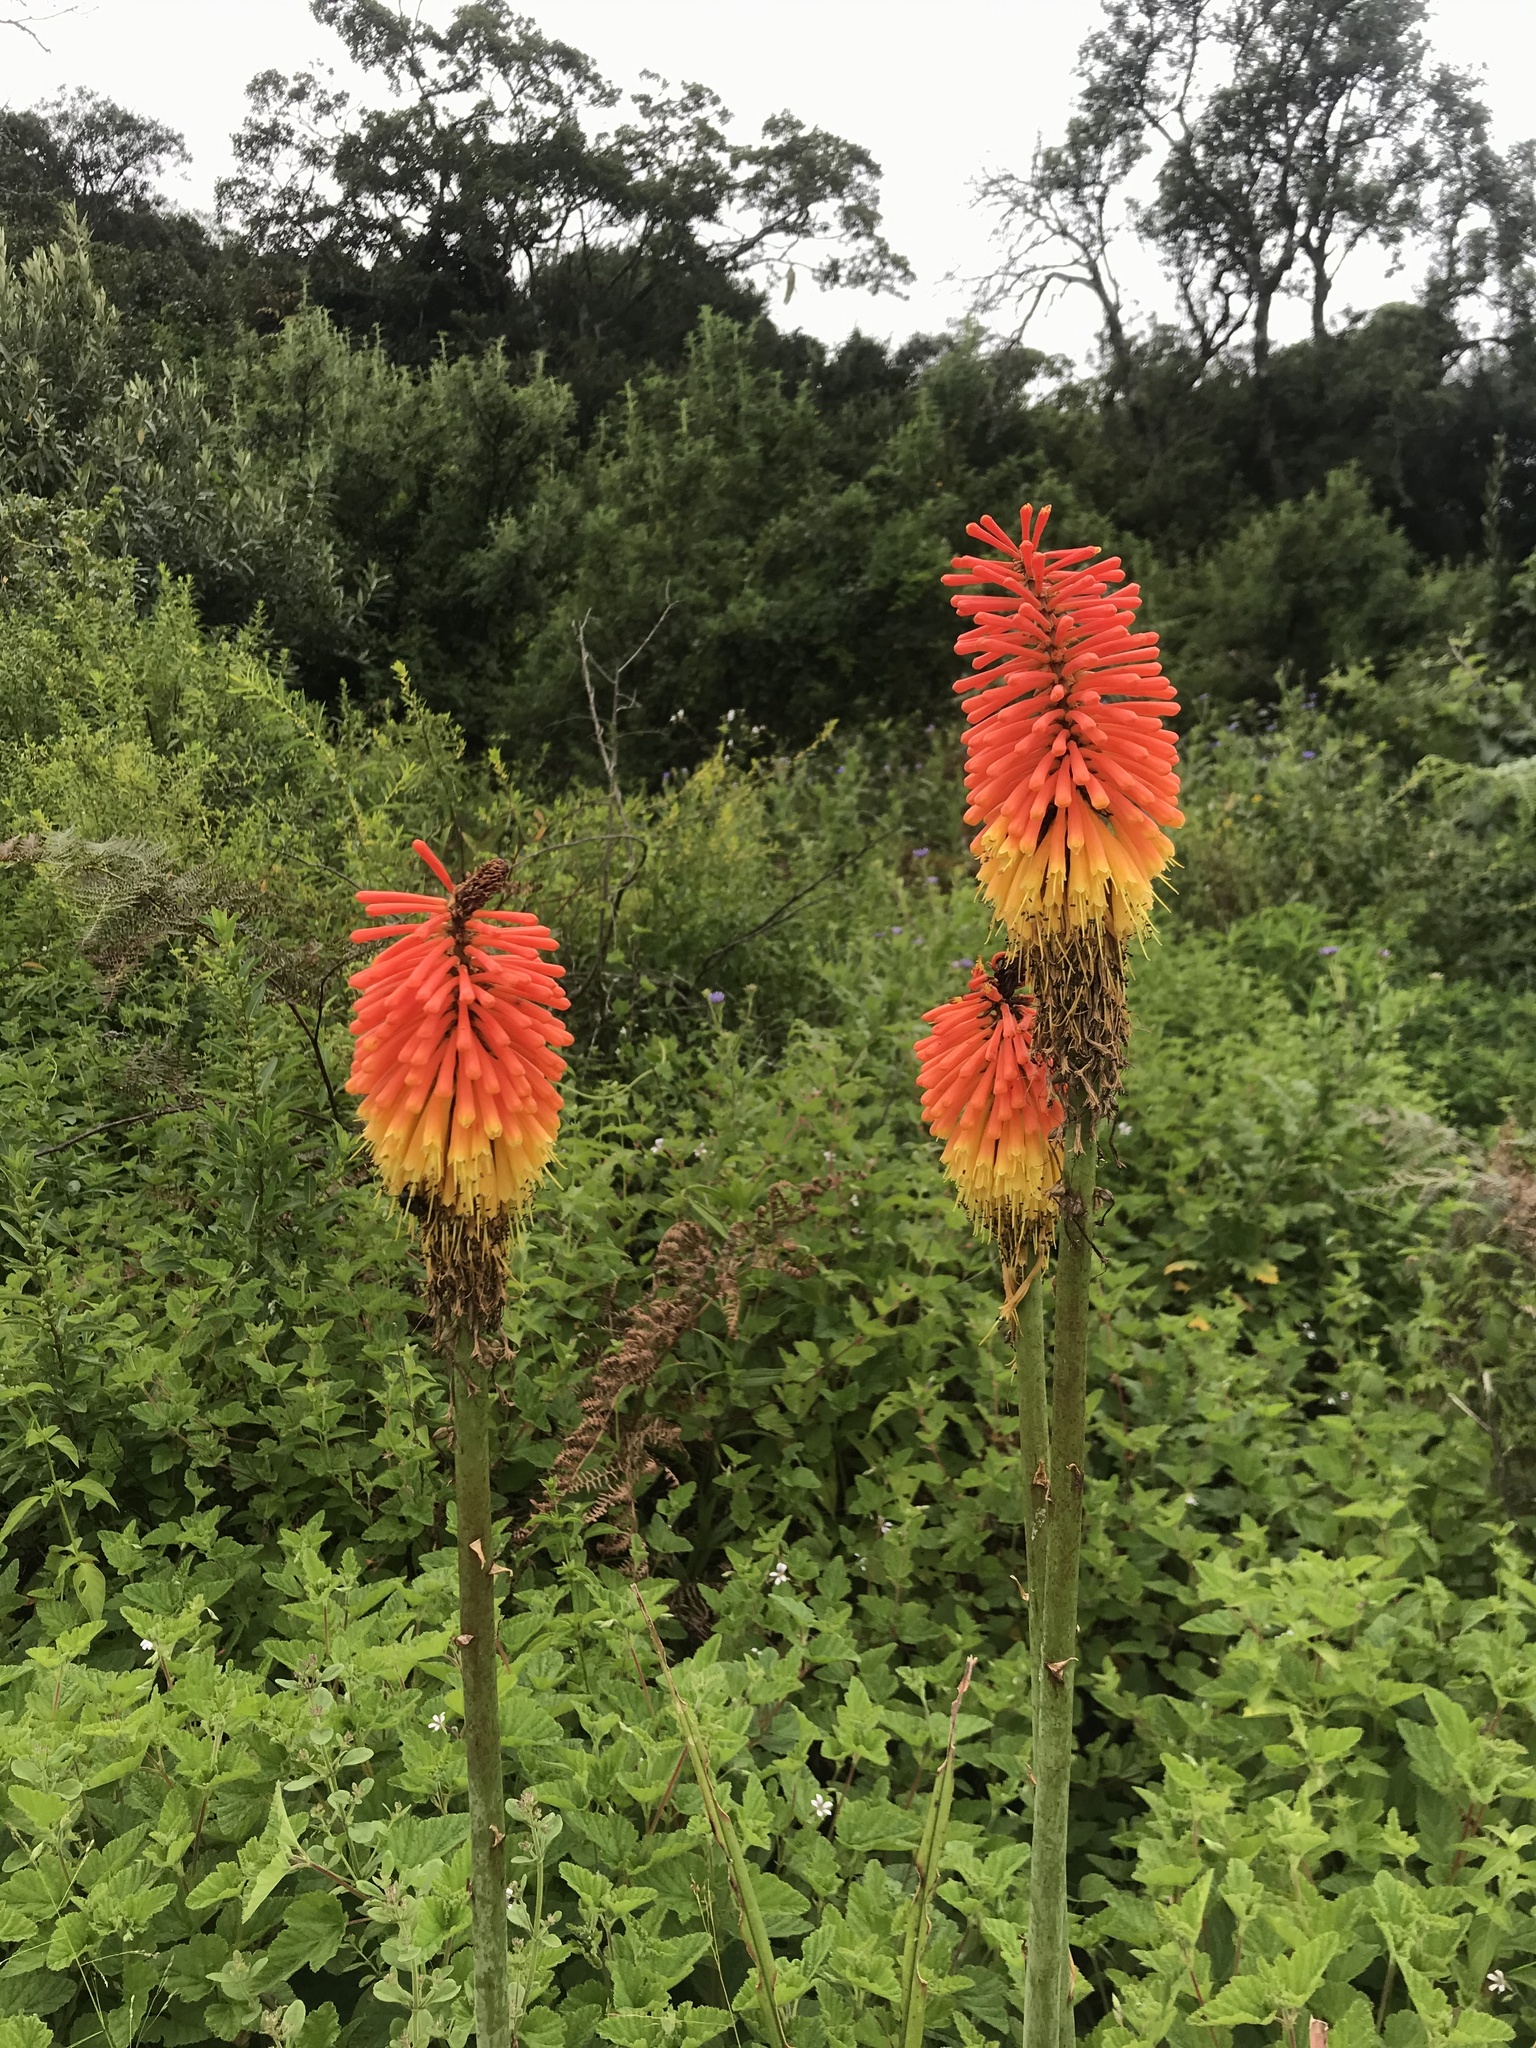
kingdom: Plantae
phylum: Tracheophyta
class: Liliopsida
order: Asparagales
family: Asphodelaceae
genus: Kniphofia
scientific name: Kniphofia tysonii
